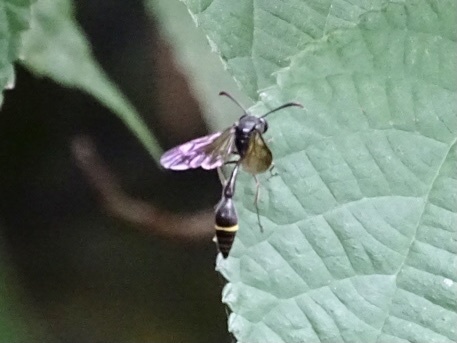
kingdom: Animalia
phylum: Arthropoda
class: Insecta
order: Hymenoptera
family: Vespidae
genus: Eustenogaster
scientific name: Eustenogaster nigra
